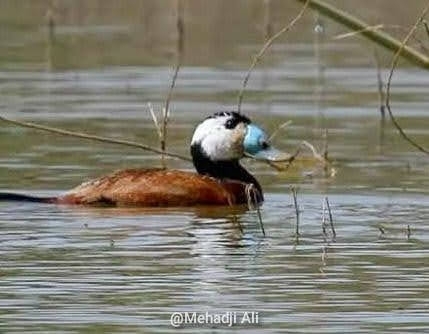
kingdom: Animalia
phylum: Chordata
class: Aves
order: Anseriformes
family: Anatidae
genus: Oxyura
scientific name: Oxyura leucocephala
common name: White-headed duck
